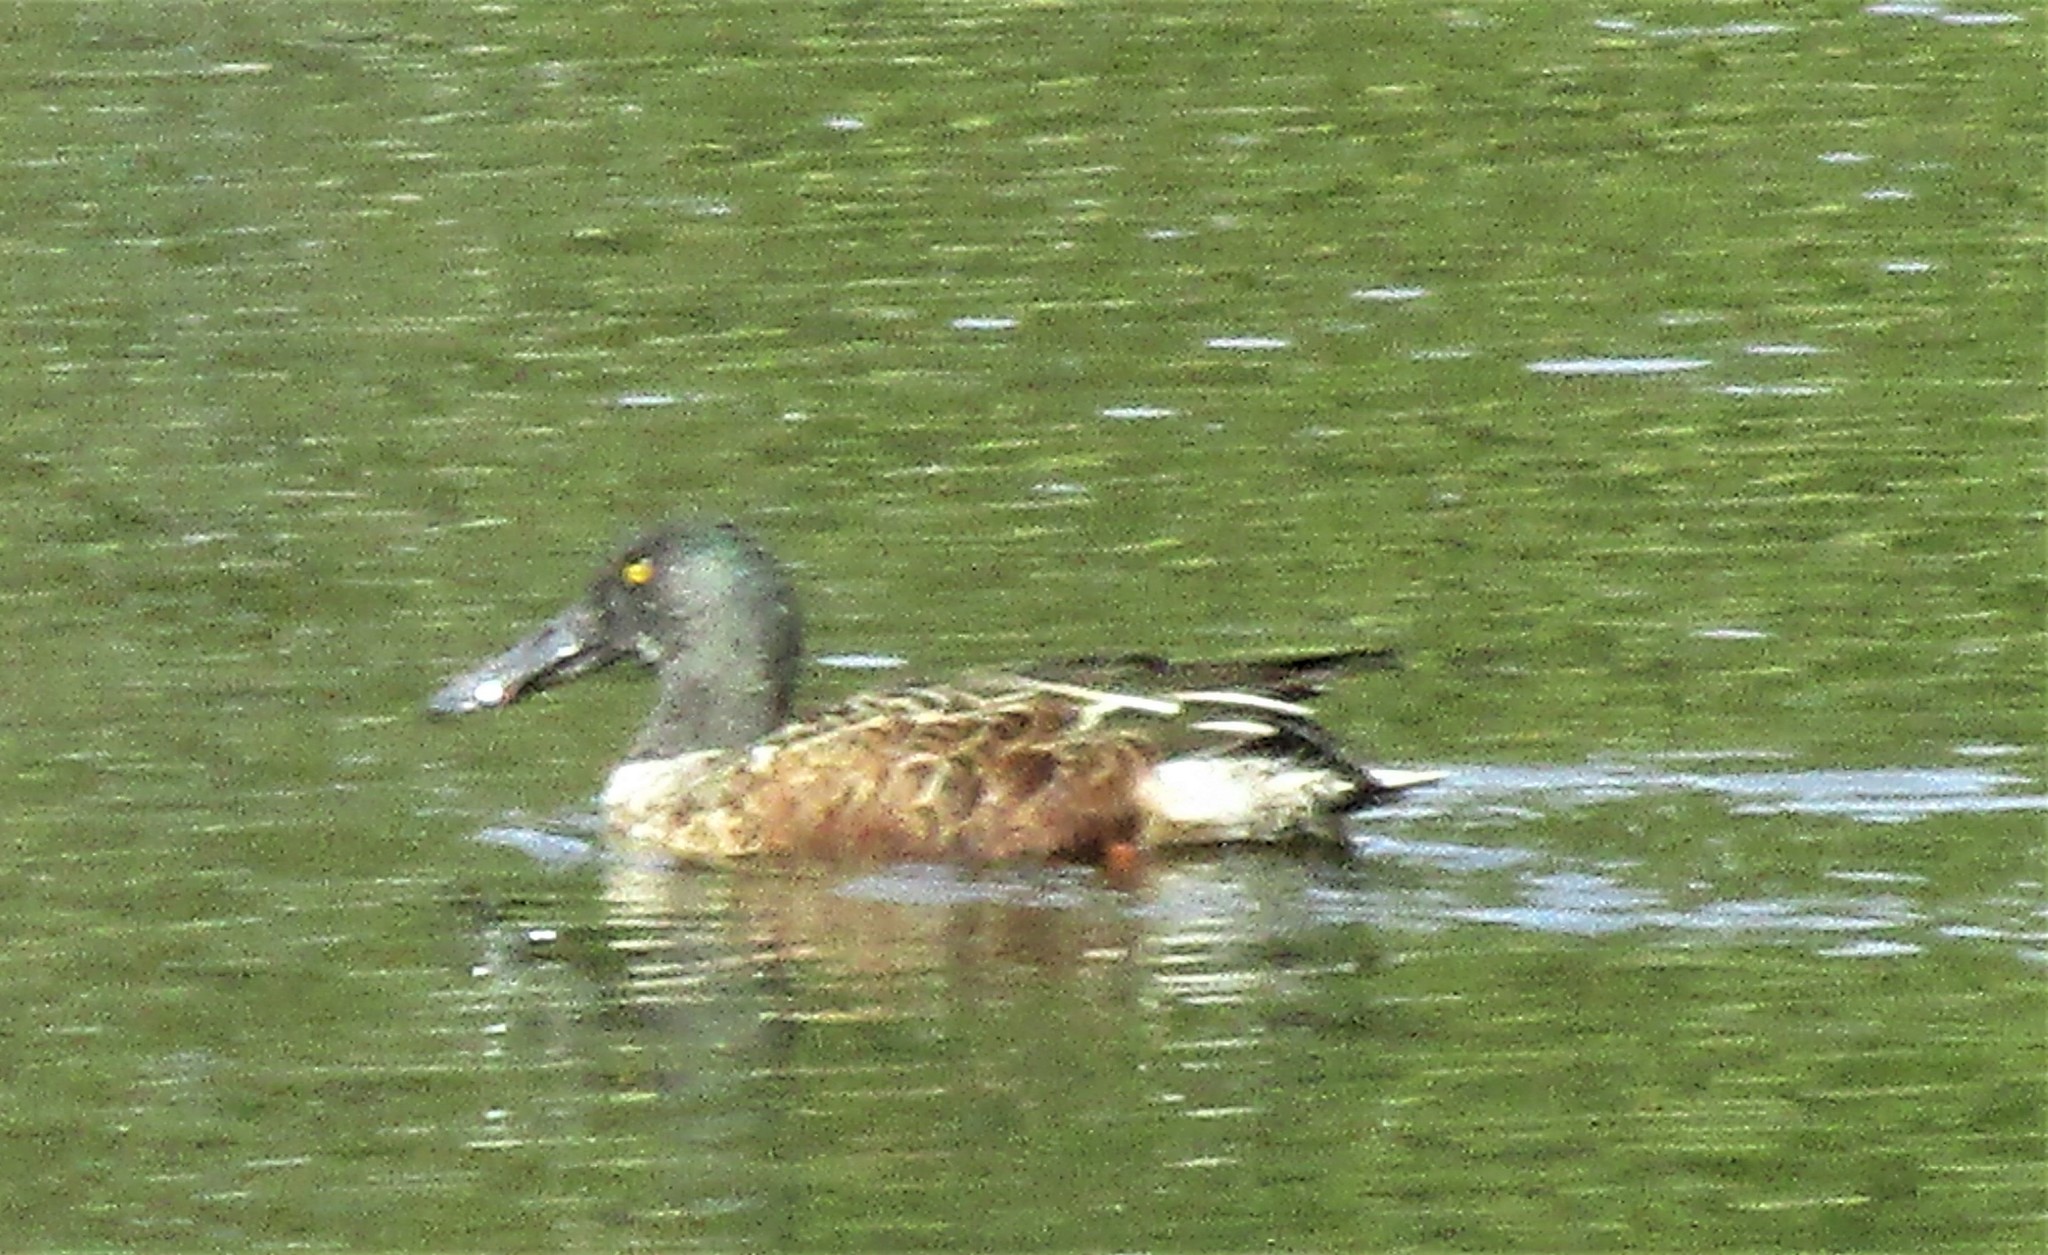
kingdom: Animalia
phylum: Chordata
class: Aves
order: Anseriformes
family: Anatidae
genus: Spatula
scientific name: Spatula clypeata
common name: Northern shoveler
